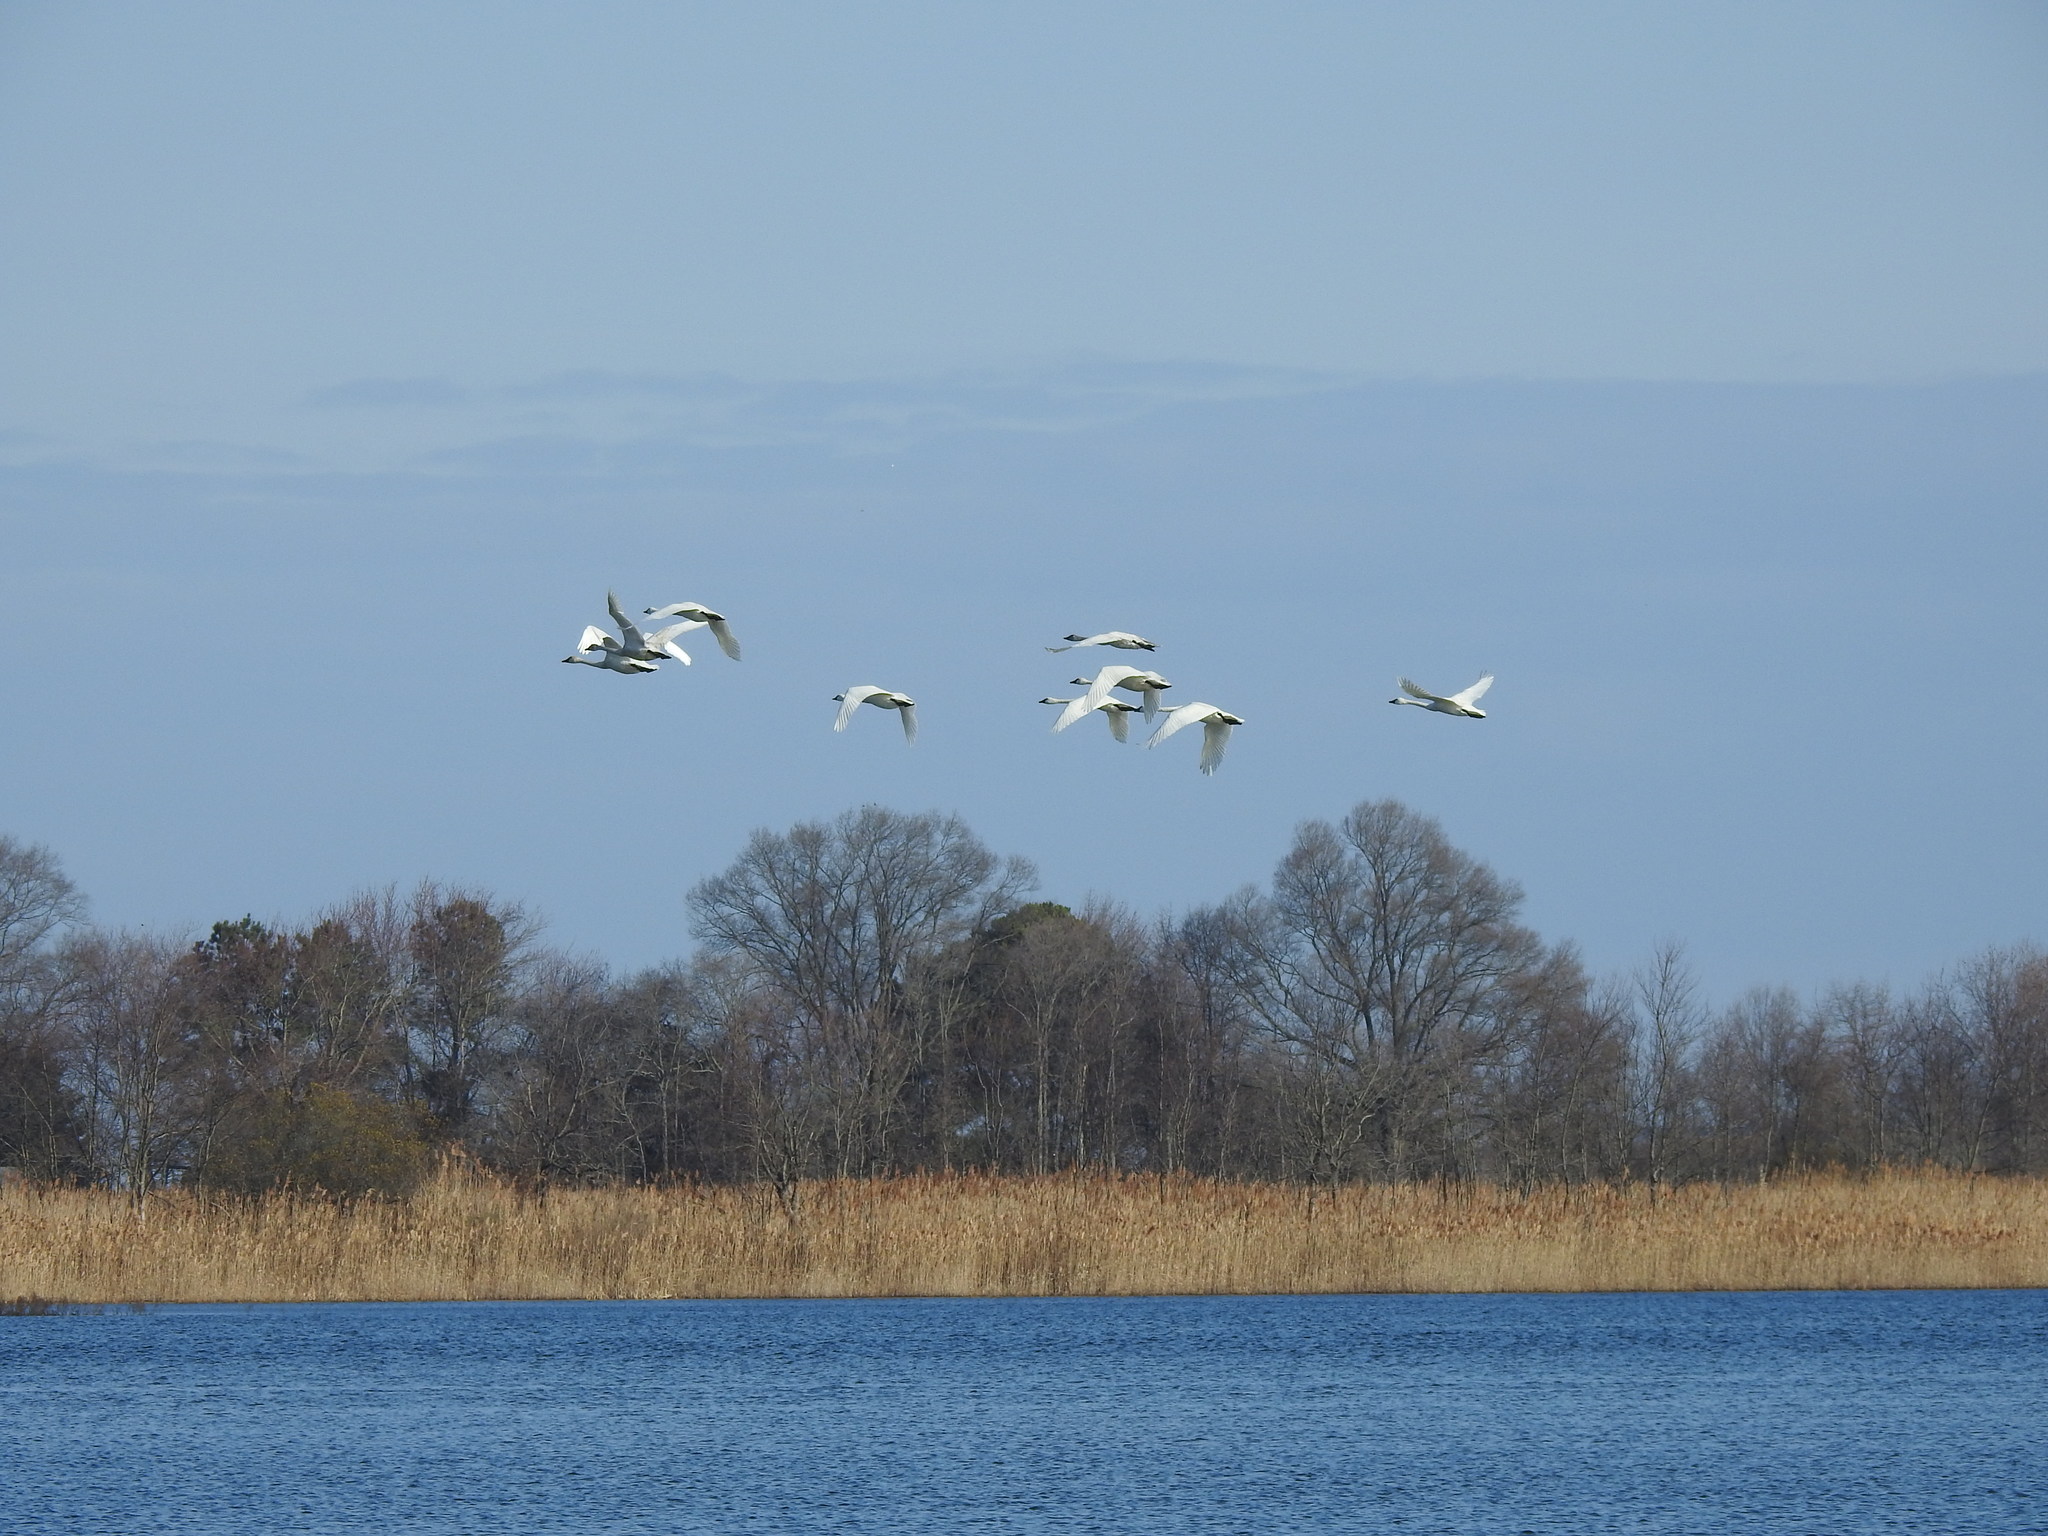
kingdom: Animalia
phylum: Chordata
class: Aves
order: Anseriformes
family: Anatidae
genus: Cygnus
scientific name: Cygnus columbianus
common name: Tundra swan
